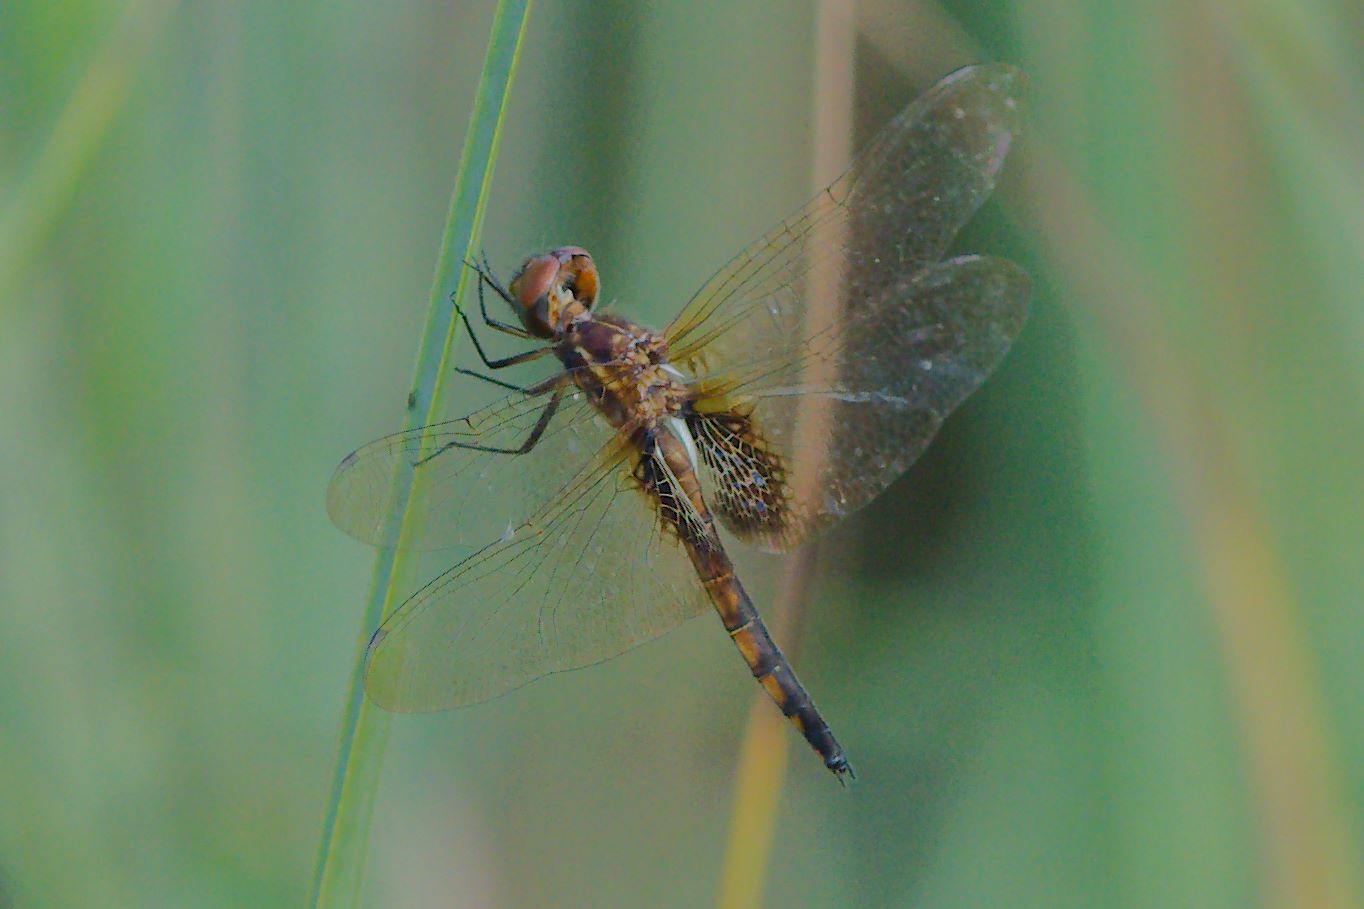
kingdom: Animalia
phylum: Arthropoda
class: Insecta
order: Odonata
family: Libellulidae
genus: Miathyria
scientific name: Miathyria marcella
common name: Hyacinth glider
